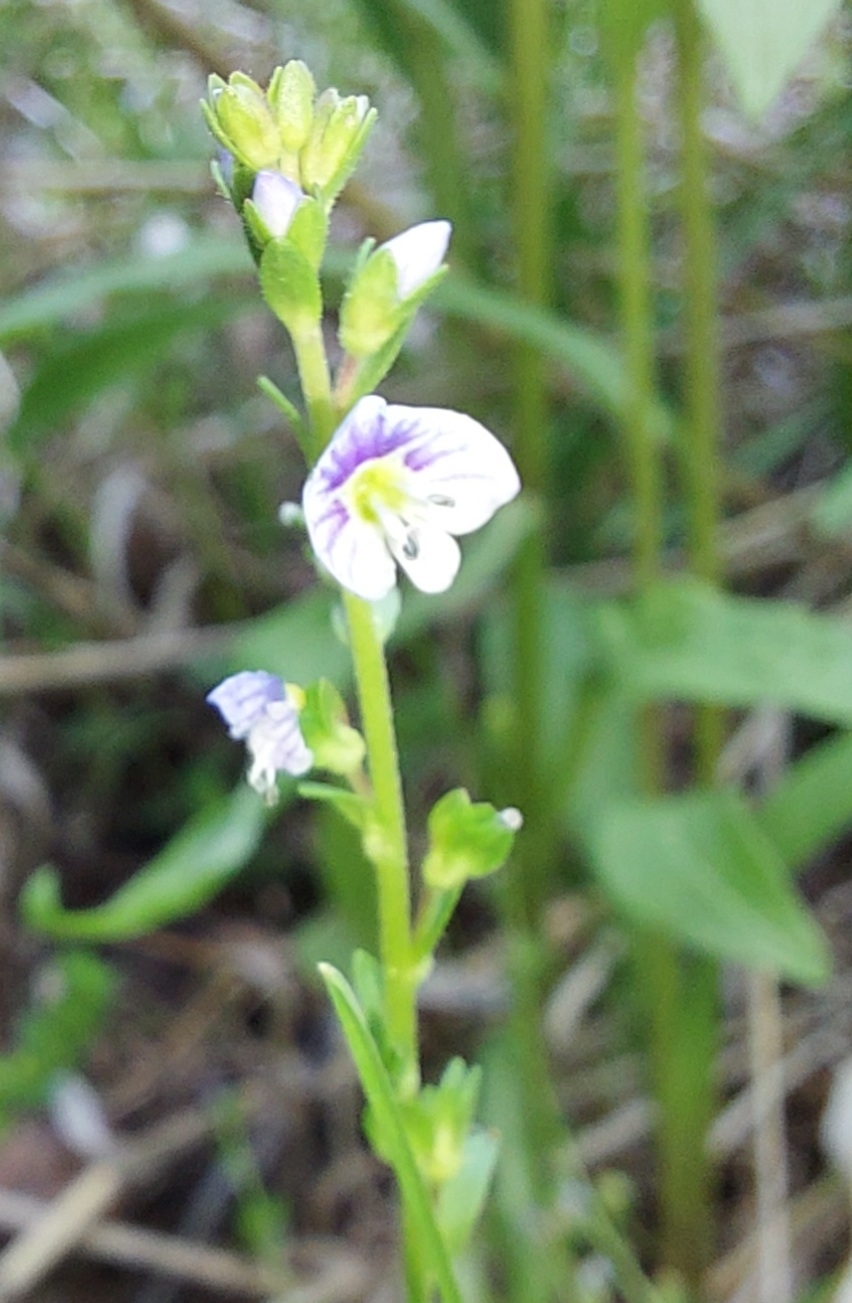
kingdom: Plantae
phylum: Tracheophyta
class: Magnoliopsida
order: Lamiales
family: Plantaginaceae
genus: Veronica
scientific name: Veronica serpyllifolia
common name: Thyme-leaved speedwell
